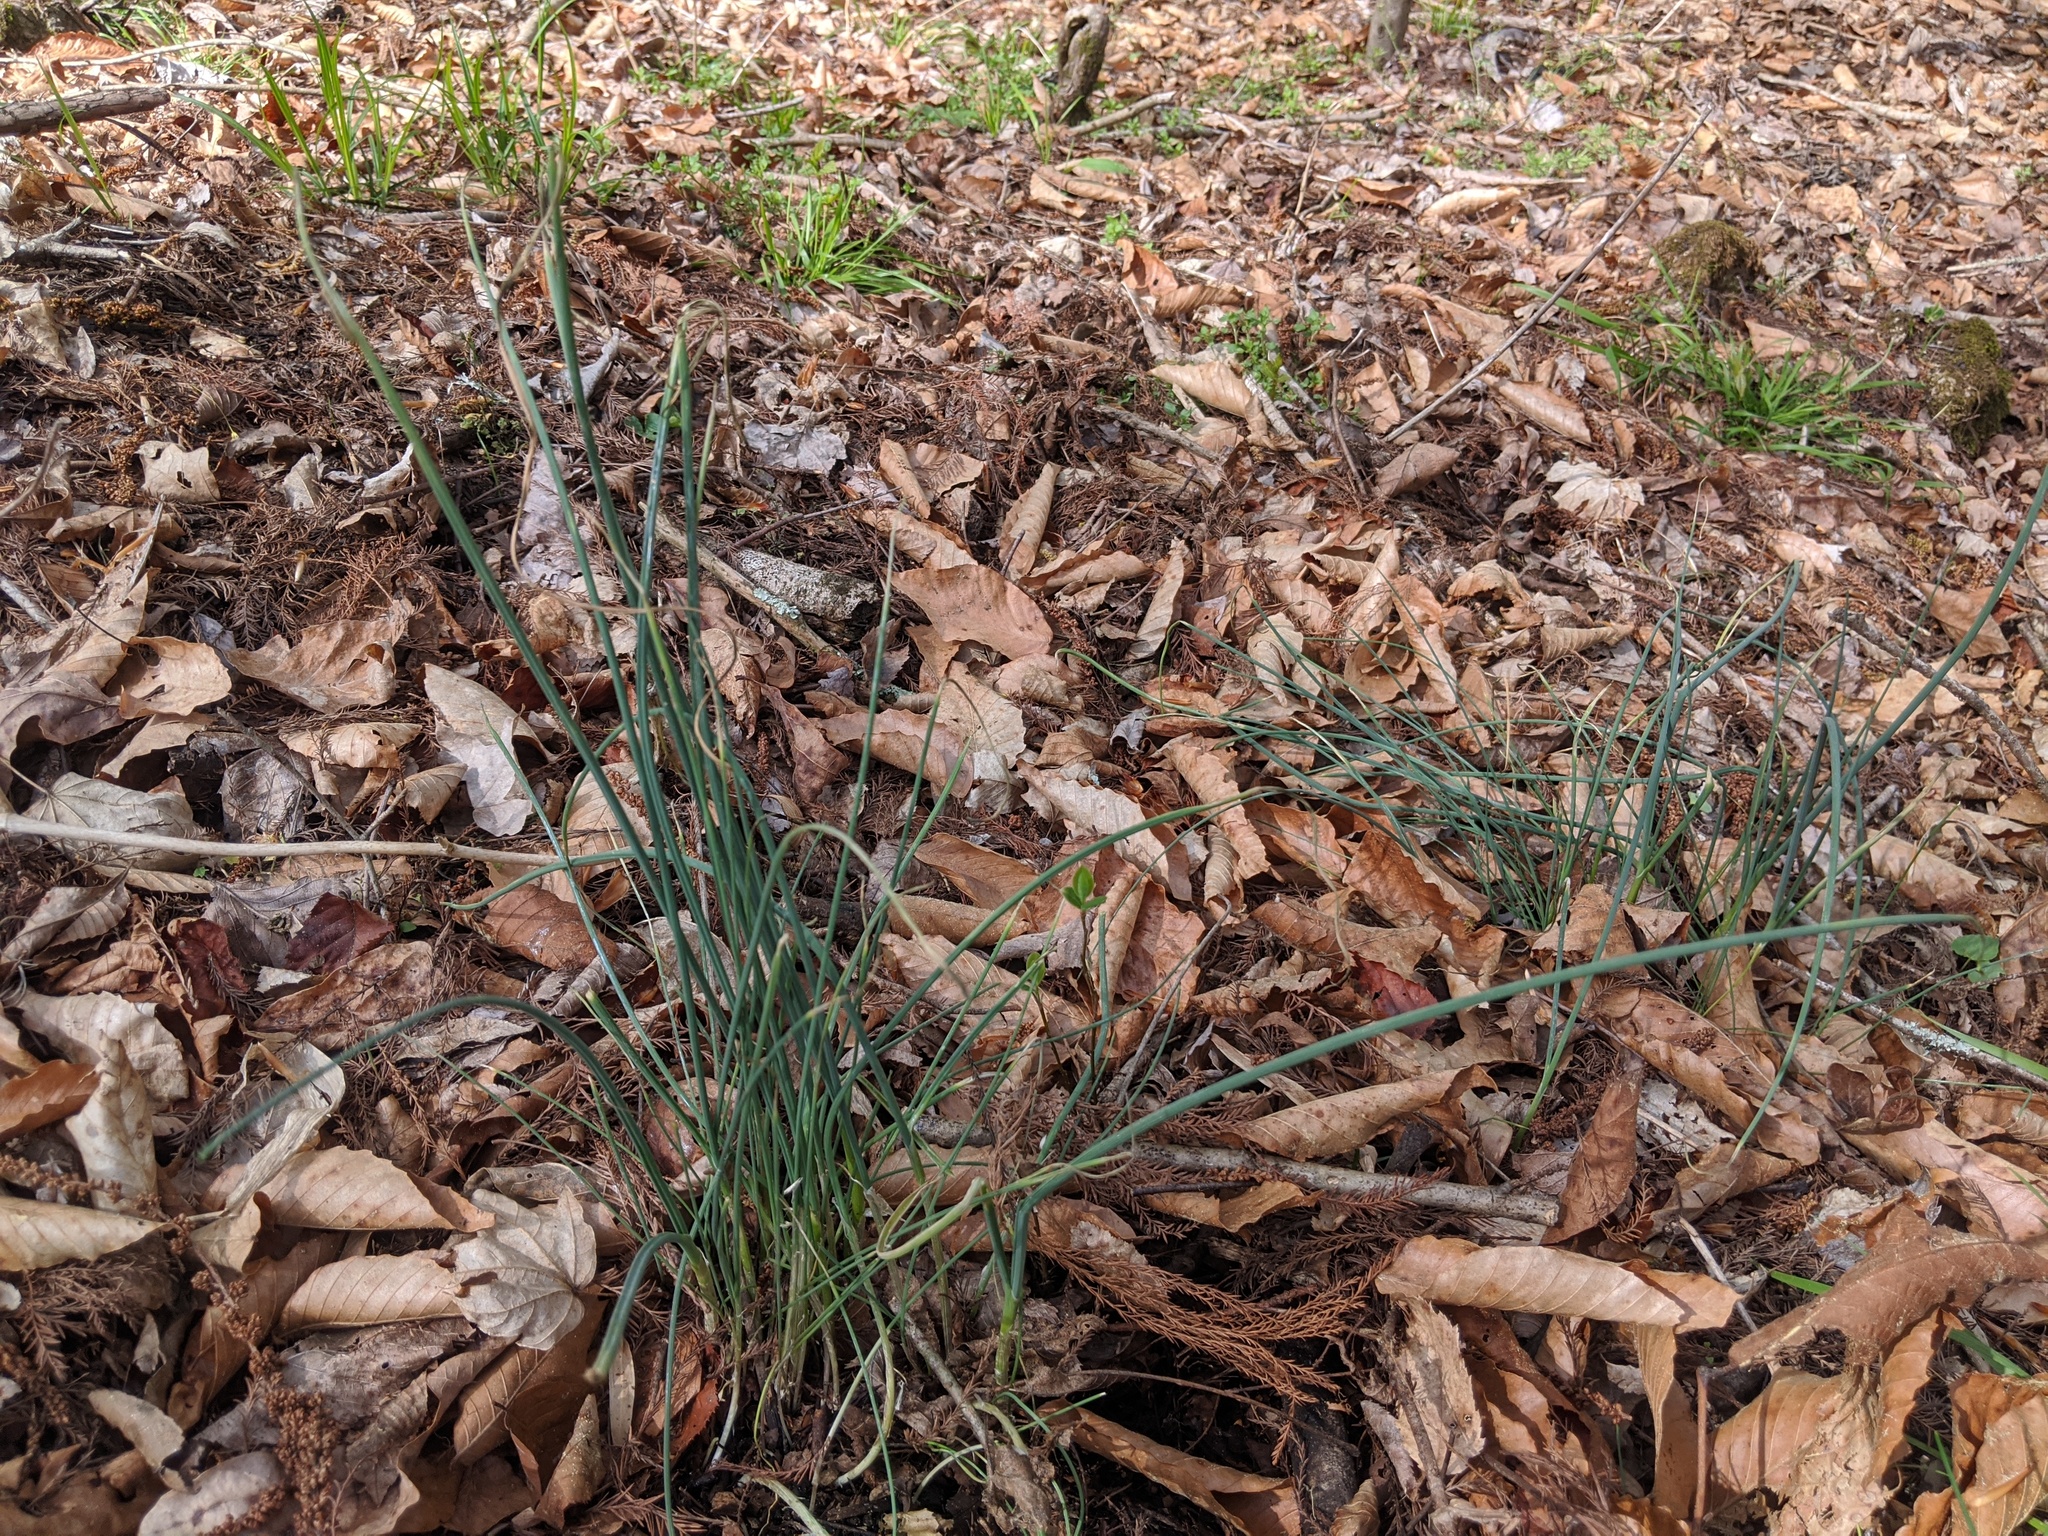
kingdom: Plantae
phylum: Tracheophyta
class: Liliopsida
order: Asparagales
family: Amaryllidaceae
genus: Allium
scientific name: Allium vineale
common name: Crow garlic
